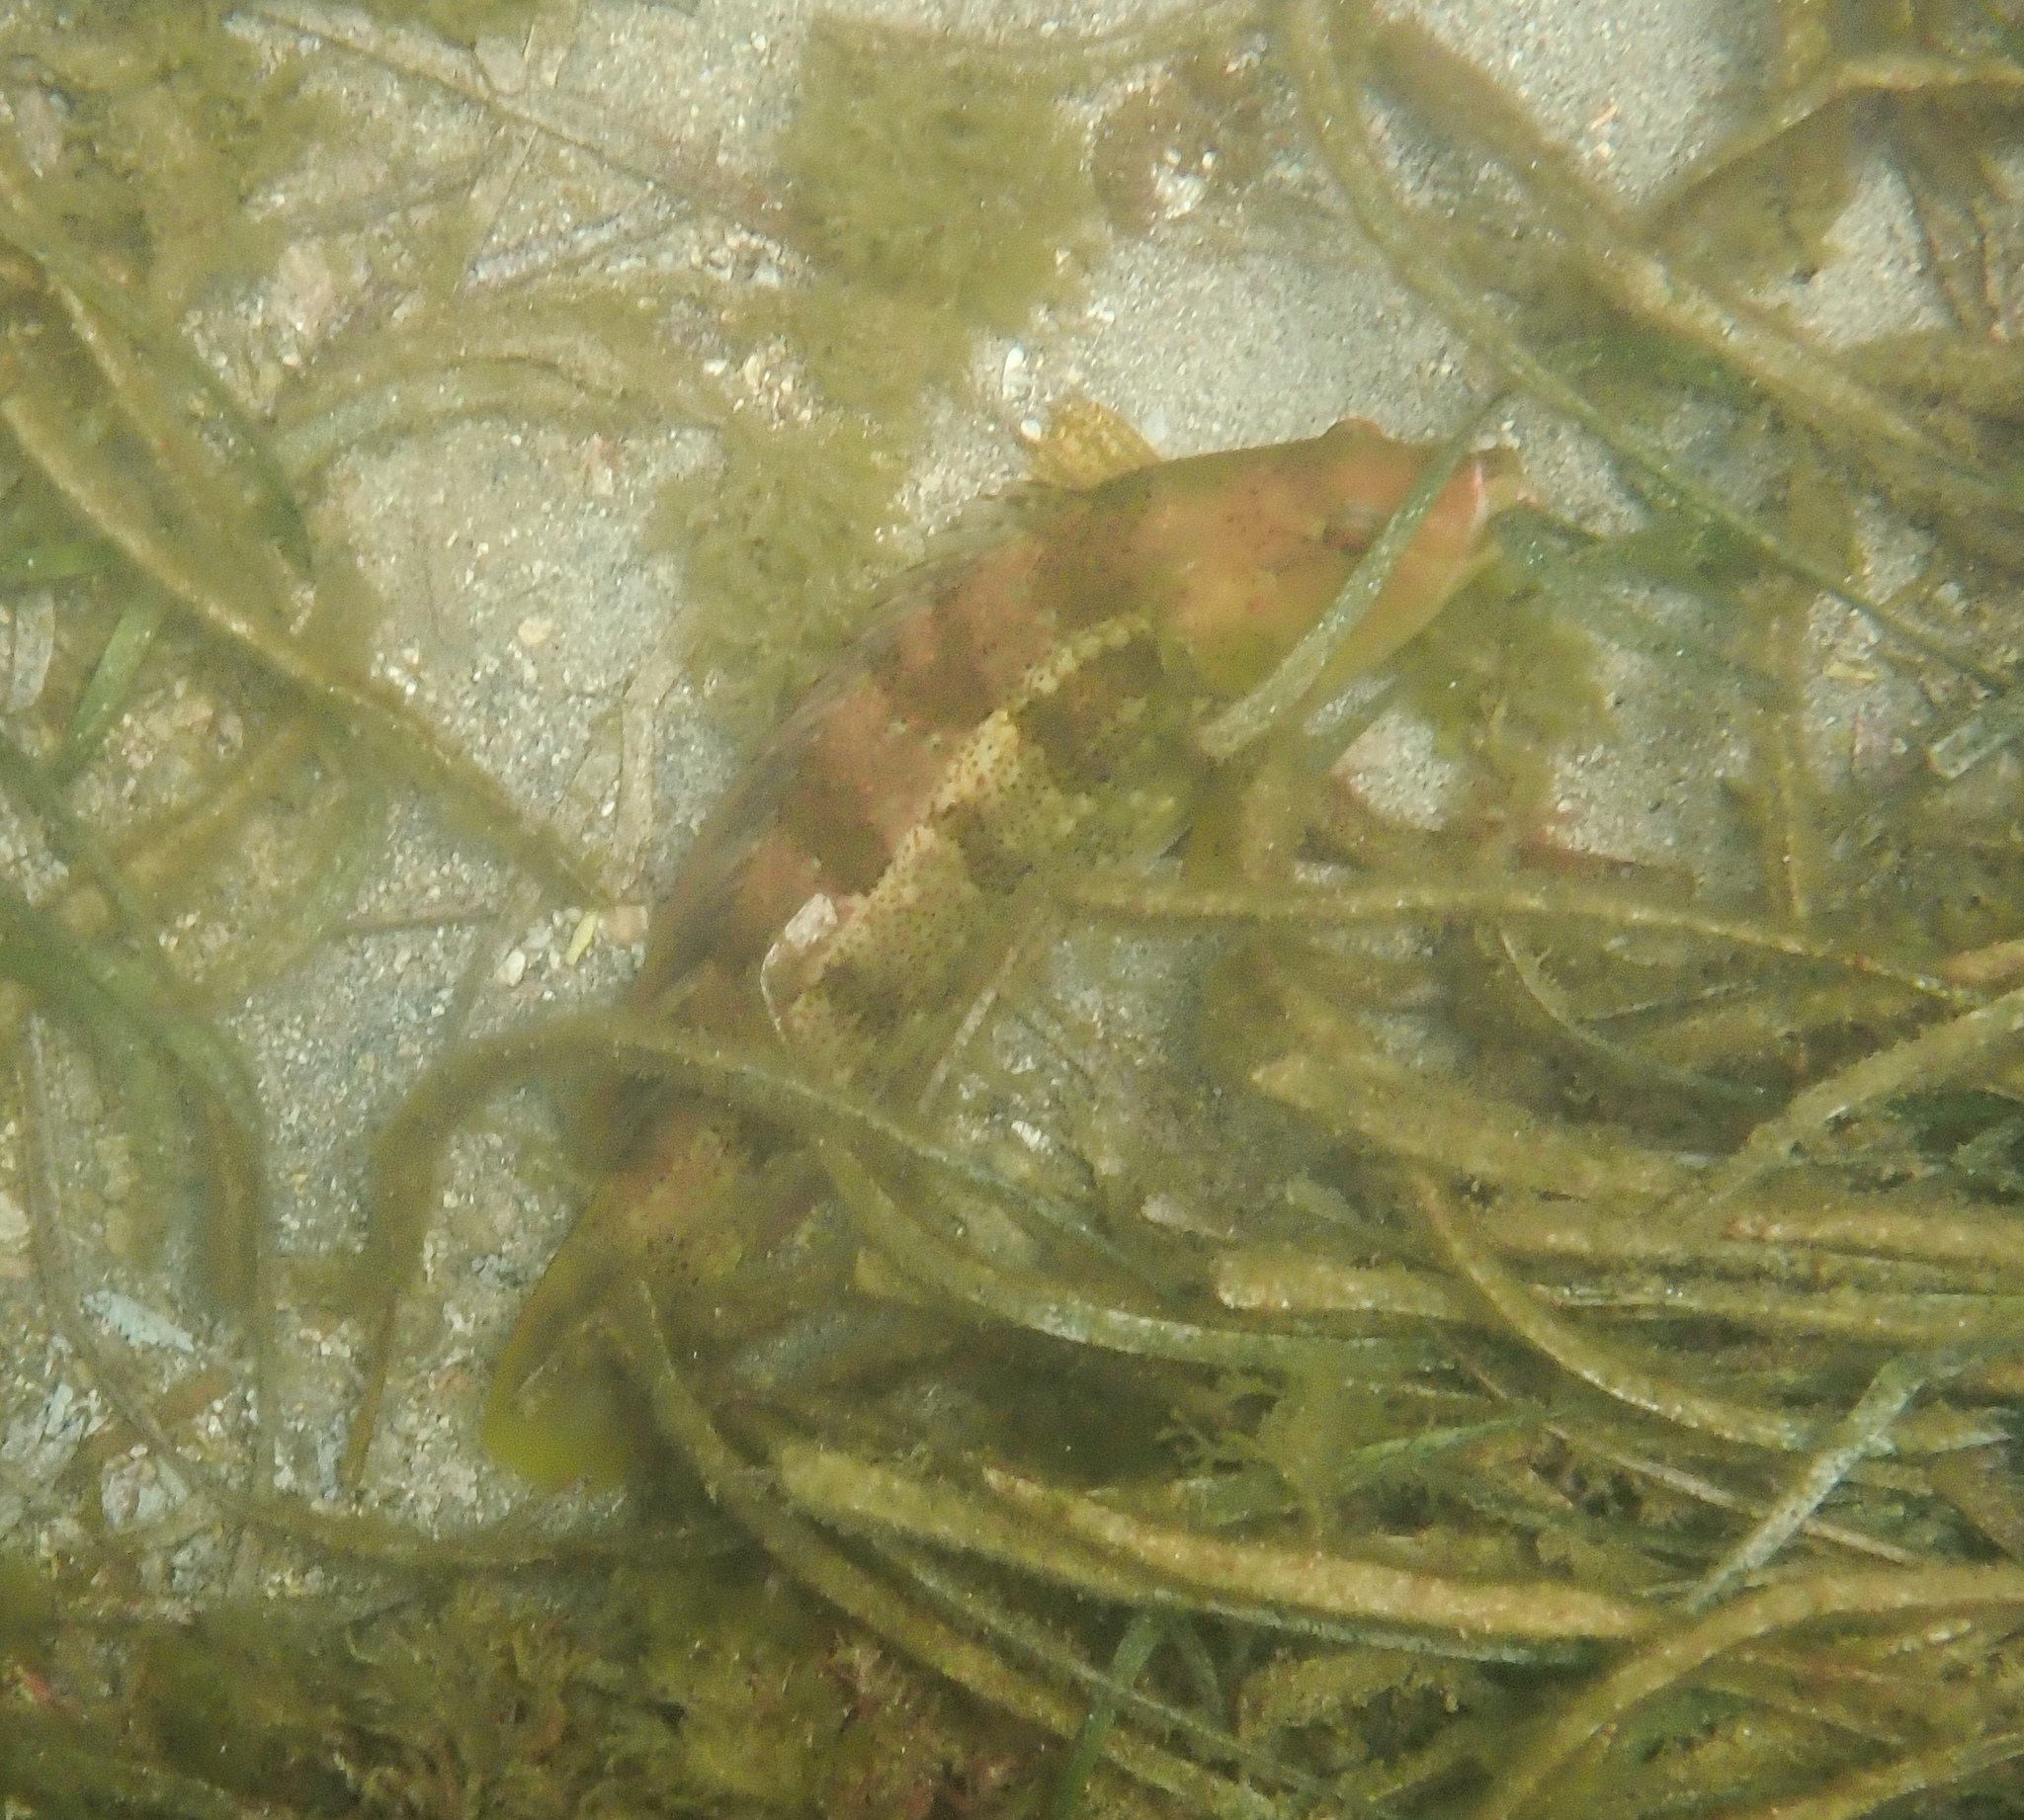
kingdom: Animalia
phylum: Chordata
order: Perciformes
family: Labridae
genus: Notolabrus
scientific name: Notolabrus parilus
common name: Brown spotted wrasse
